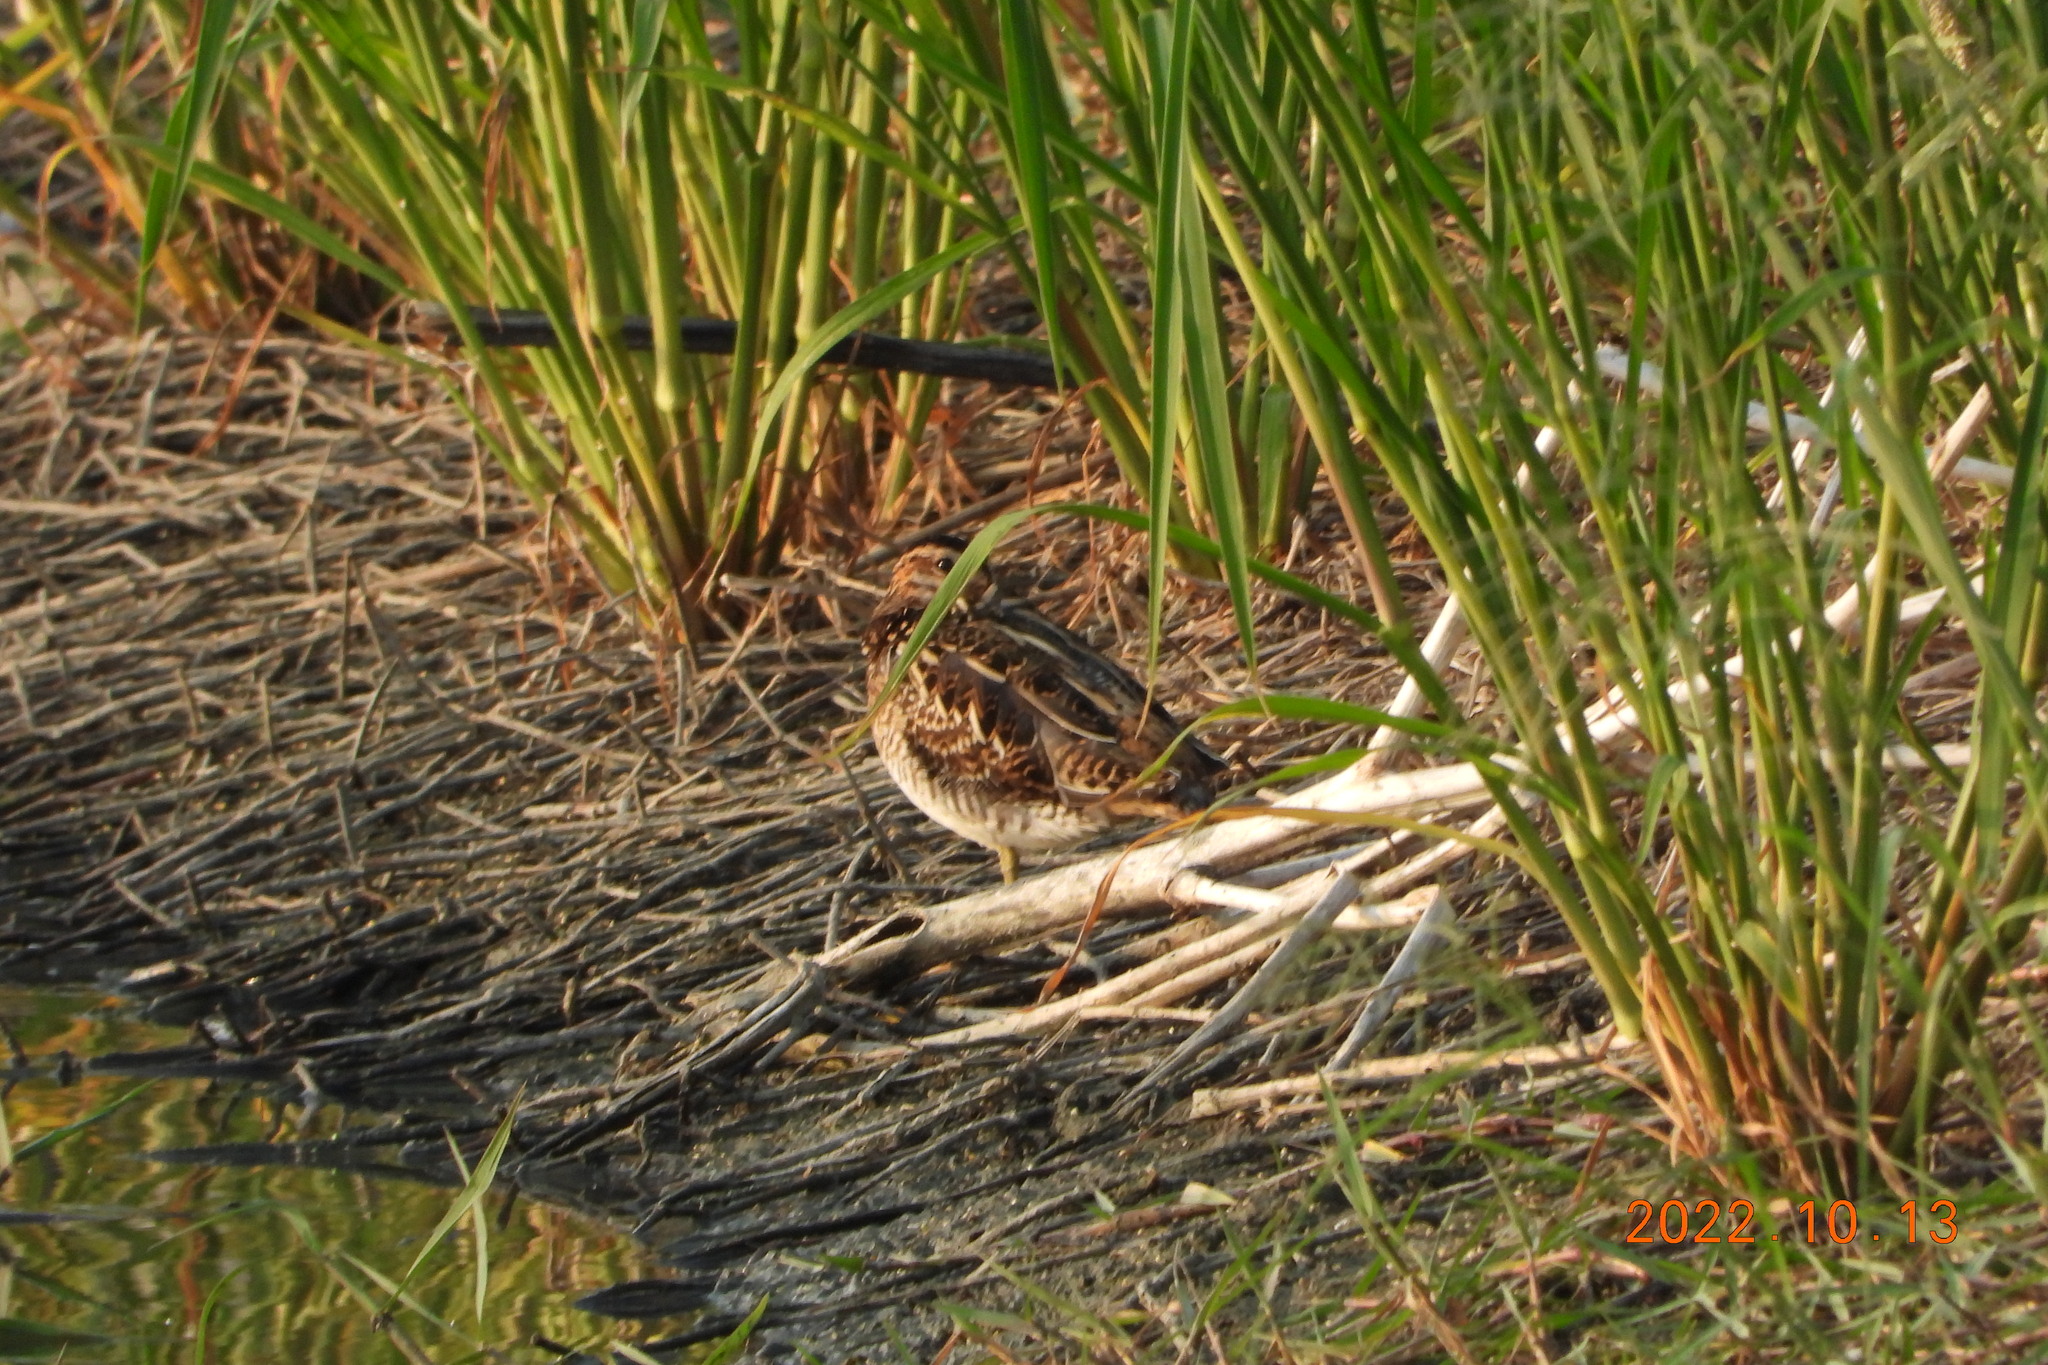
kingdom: Animalia
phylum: Chordata
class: Aves
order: Charadriiformes
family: Scolopacidae
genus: Gallinago
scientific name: Gallinago gallinago
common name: Common snipe
